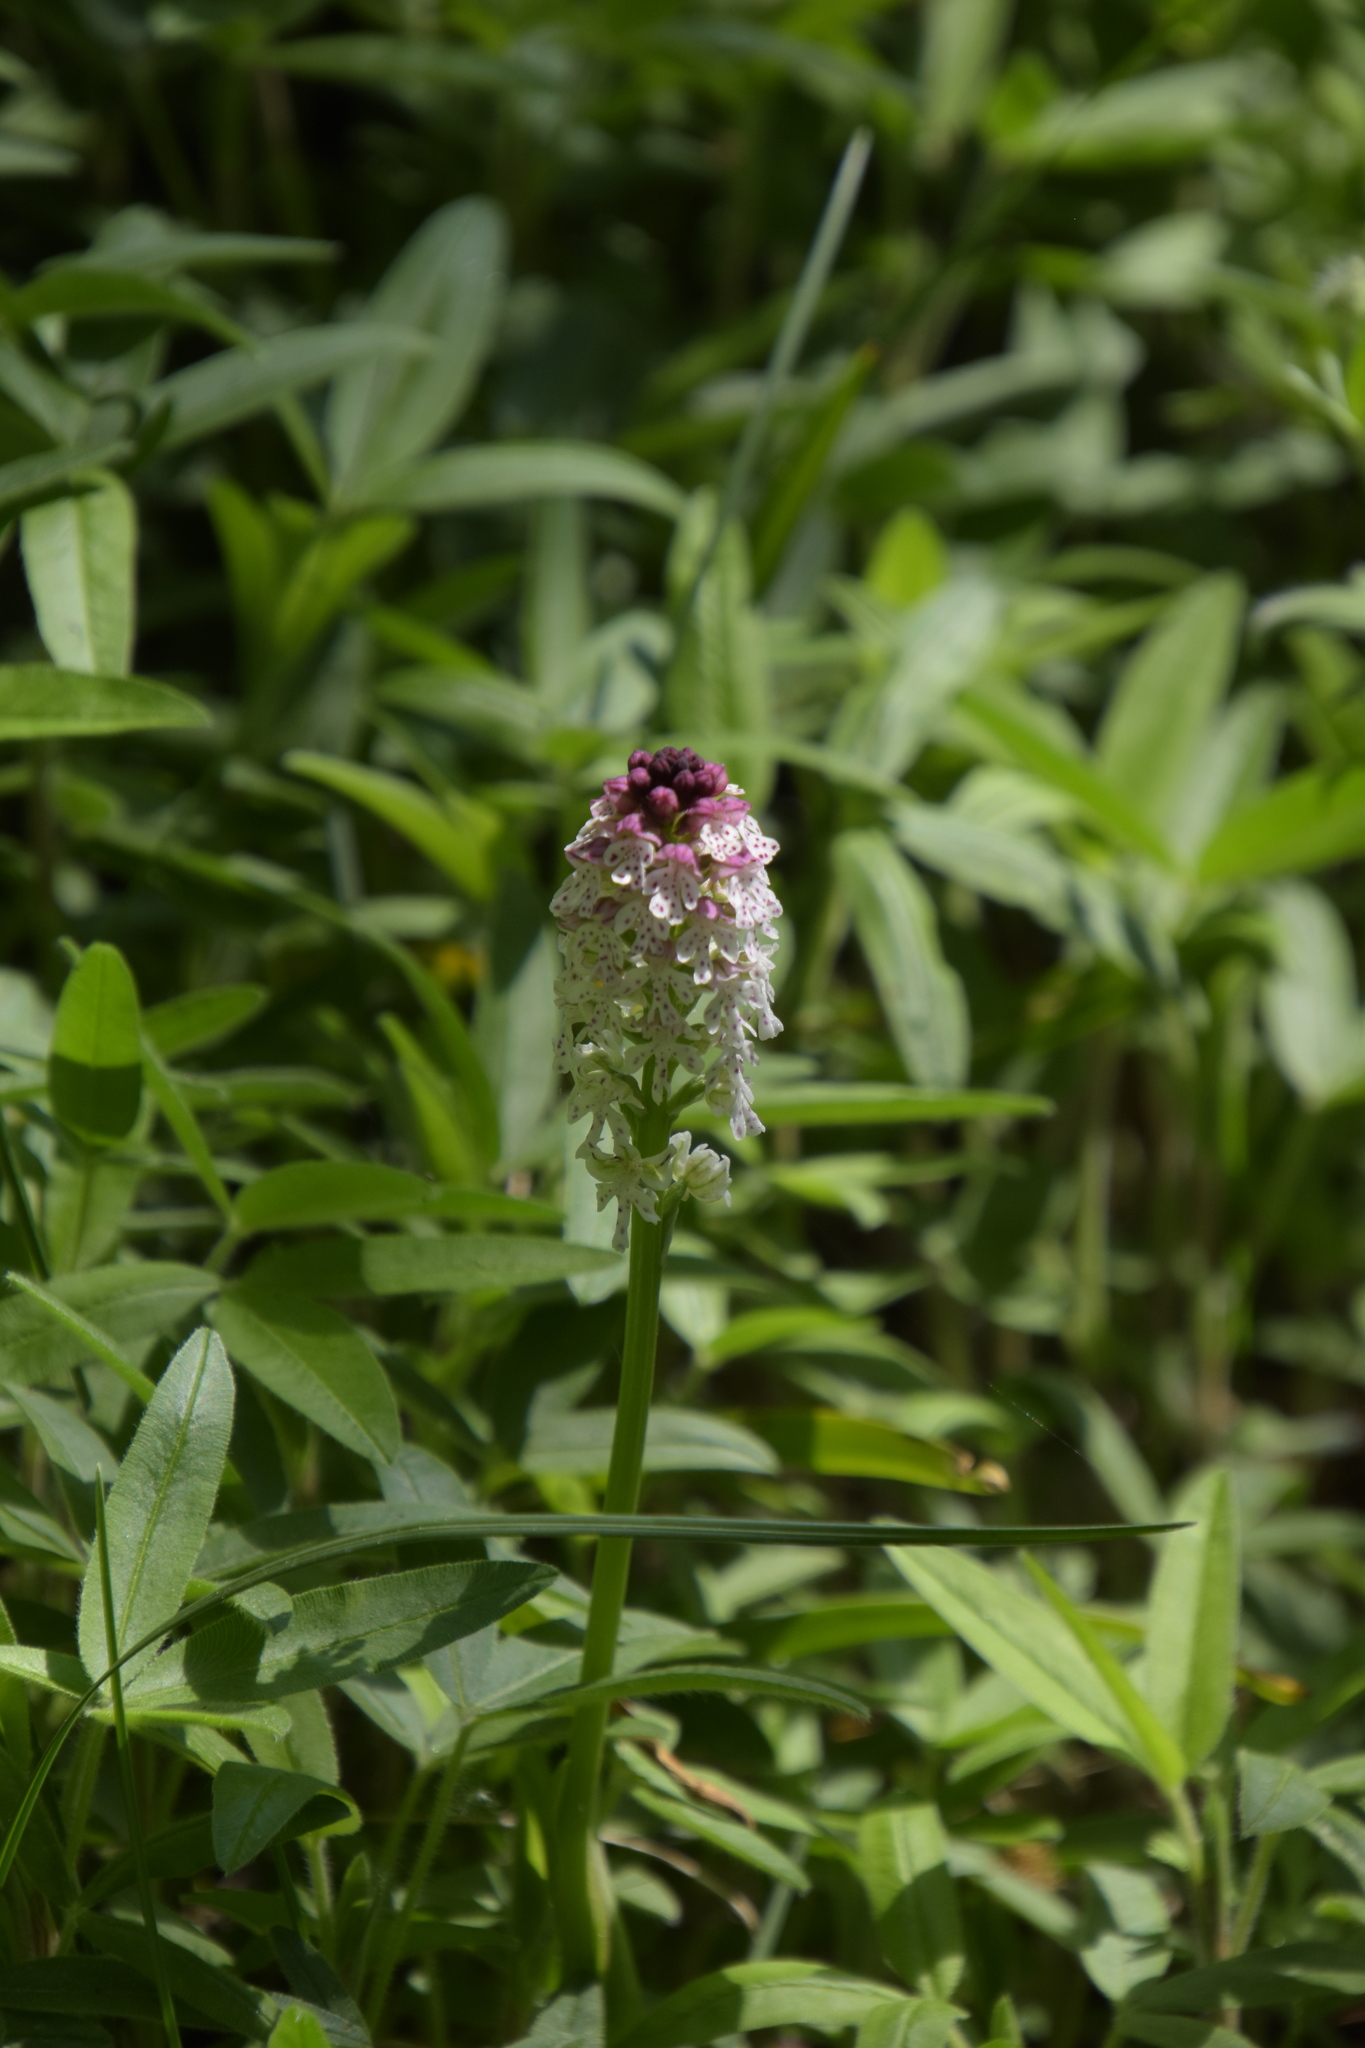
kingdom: Plantae
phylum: Tracheophyta
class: Liliopsida
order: Asparagales
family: Orchidaceae
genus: Neotinea
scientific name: Neotinea ustulata
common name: Burnt orchid
